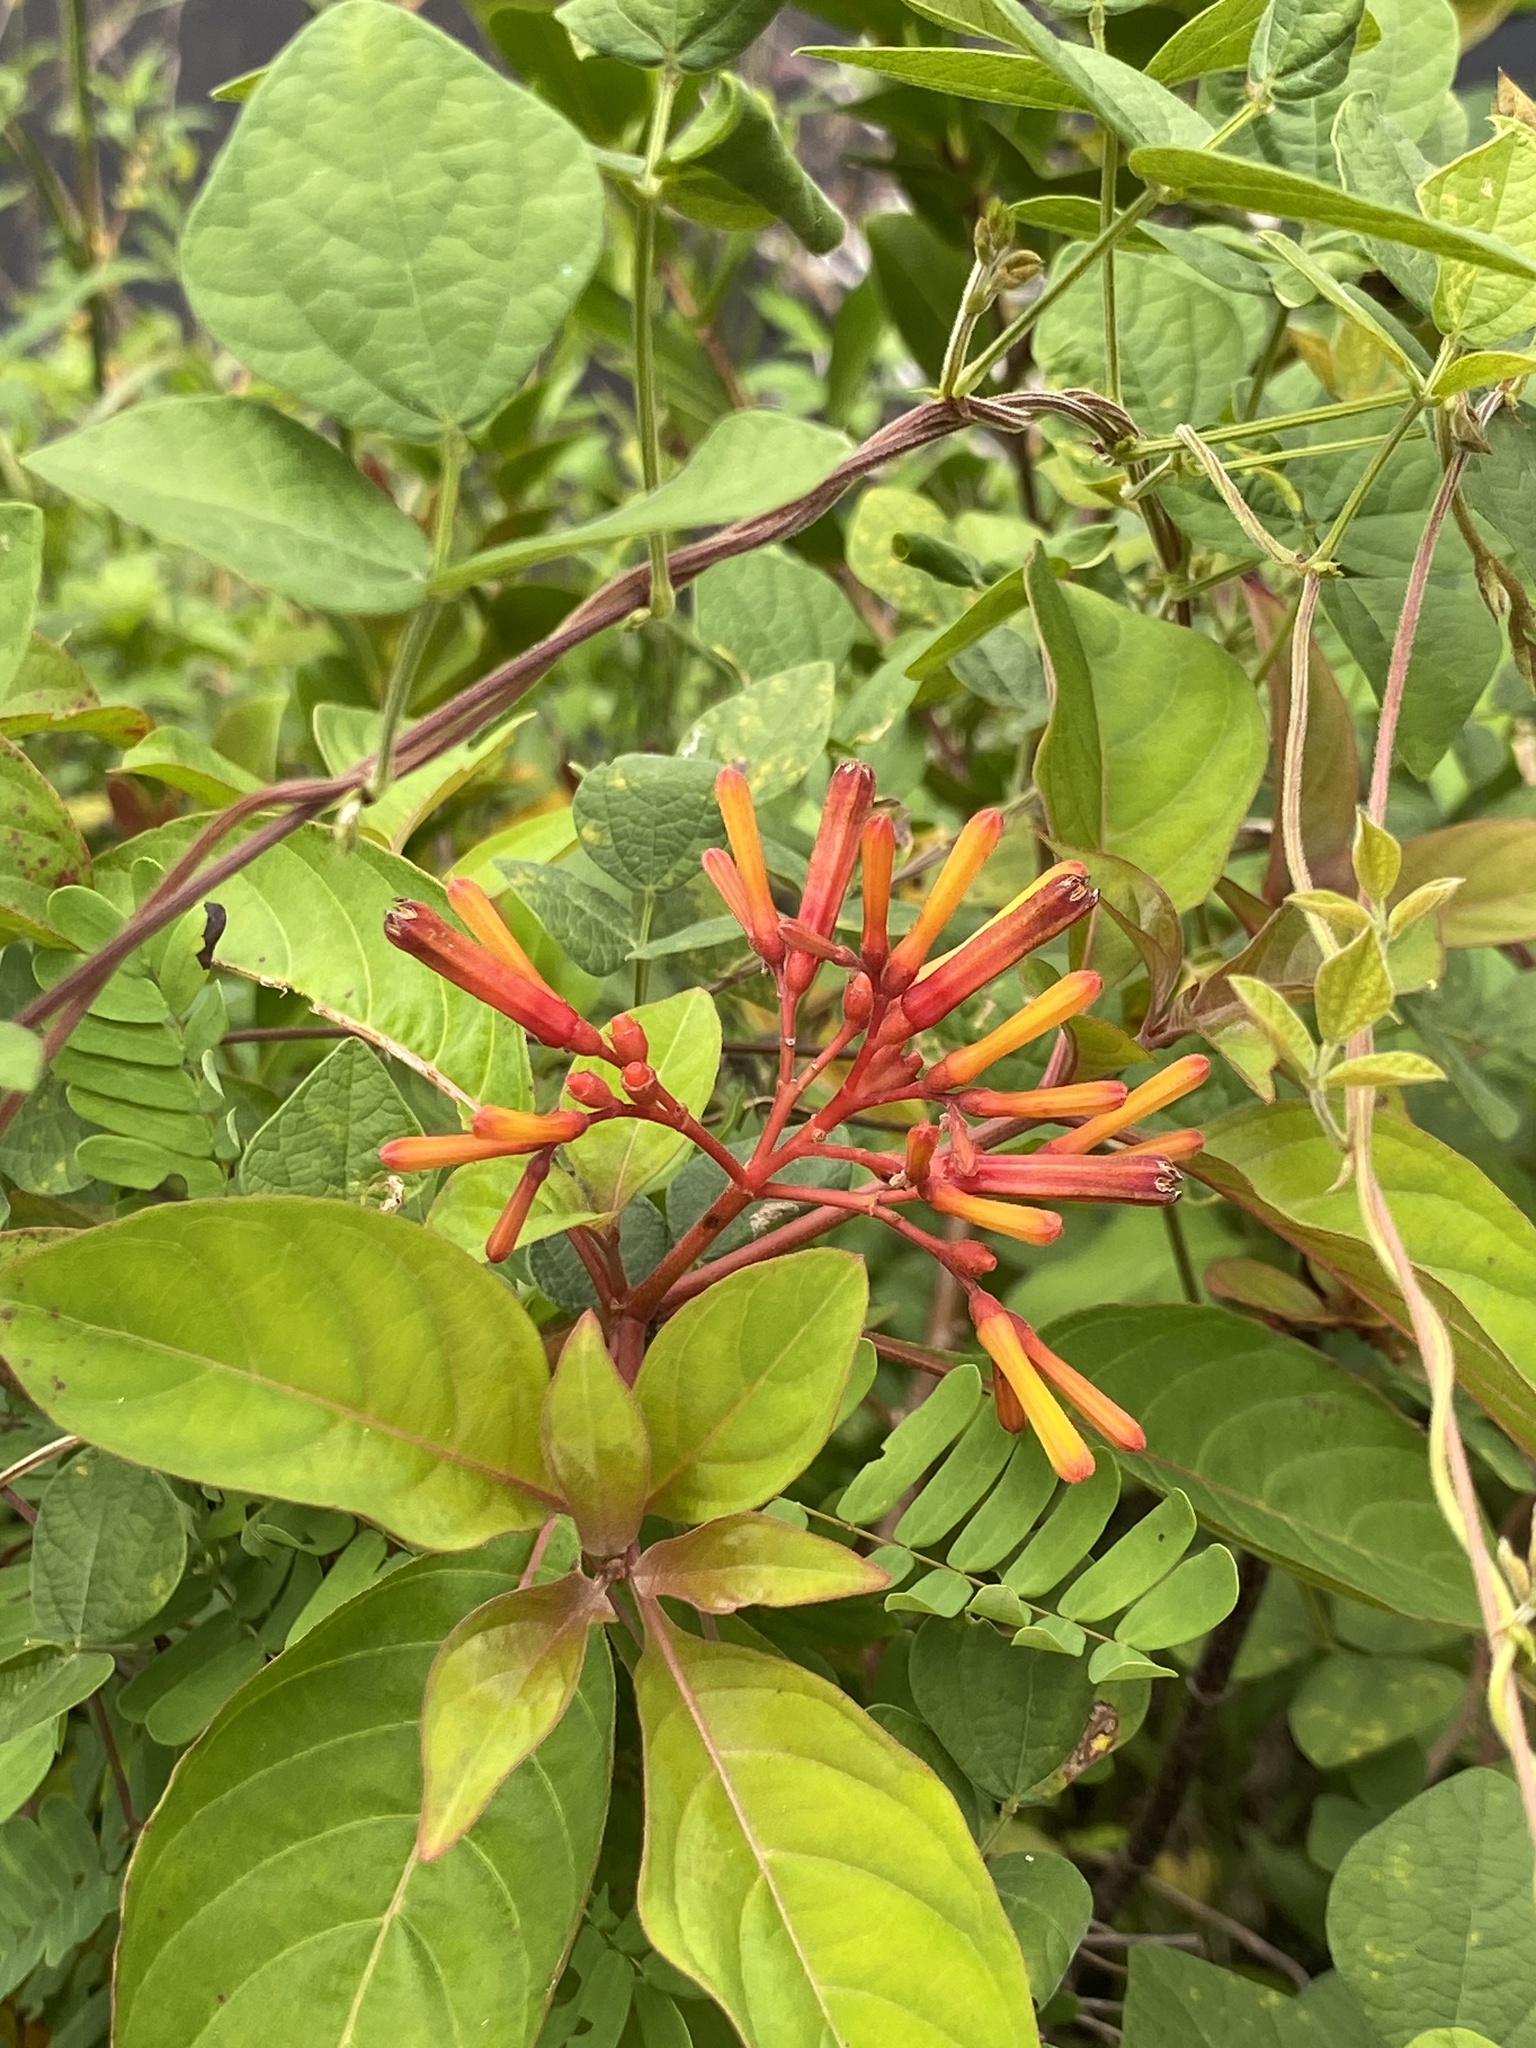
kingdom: Plantae
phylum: Tracheophyta
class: Magnoliopsida
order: Gentianales
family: Rubiaceae
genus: Hamelia
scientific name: Hamelia patens
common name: Redhead
